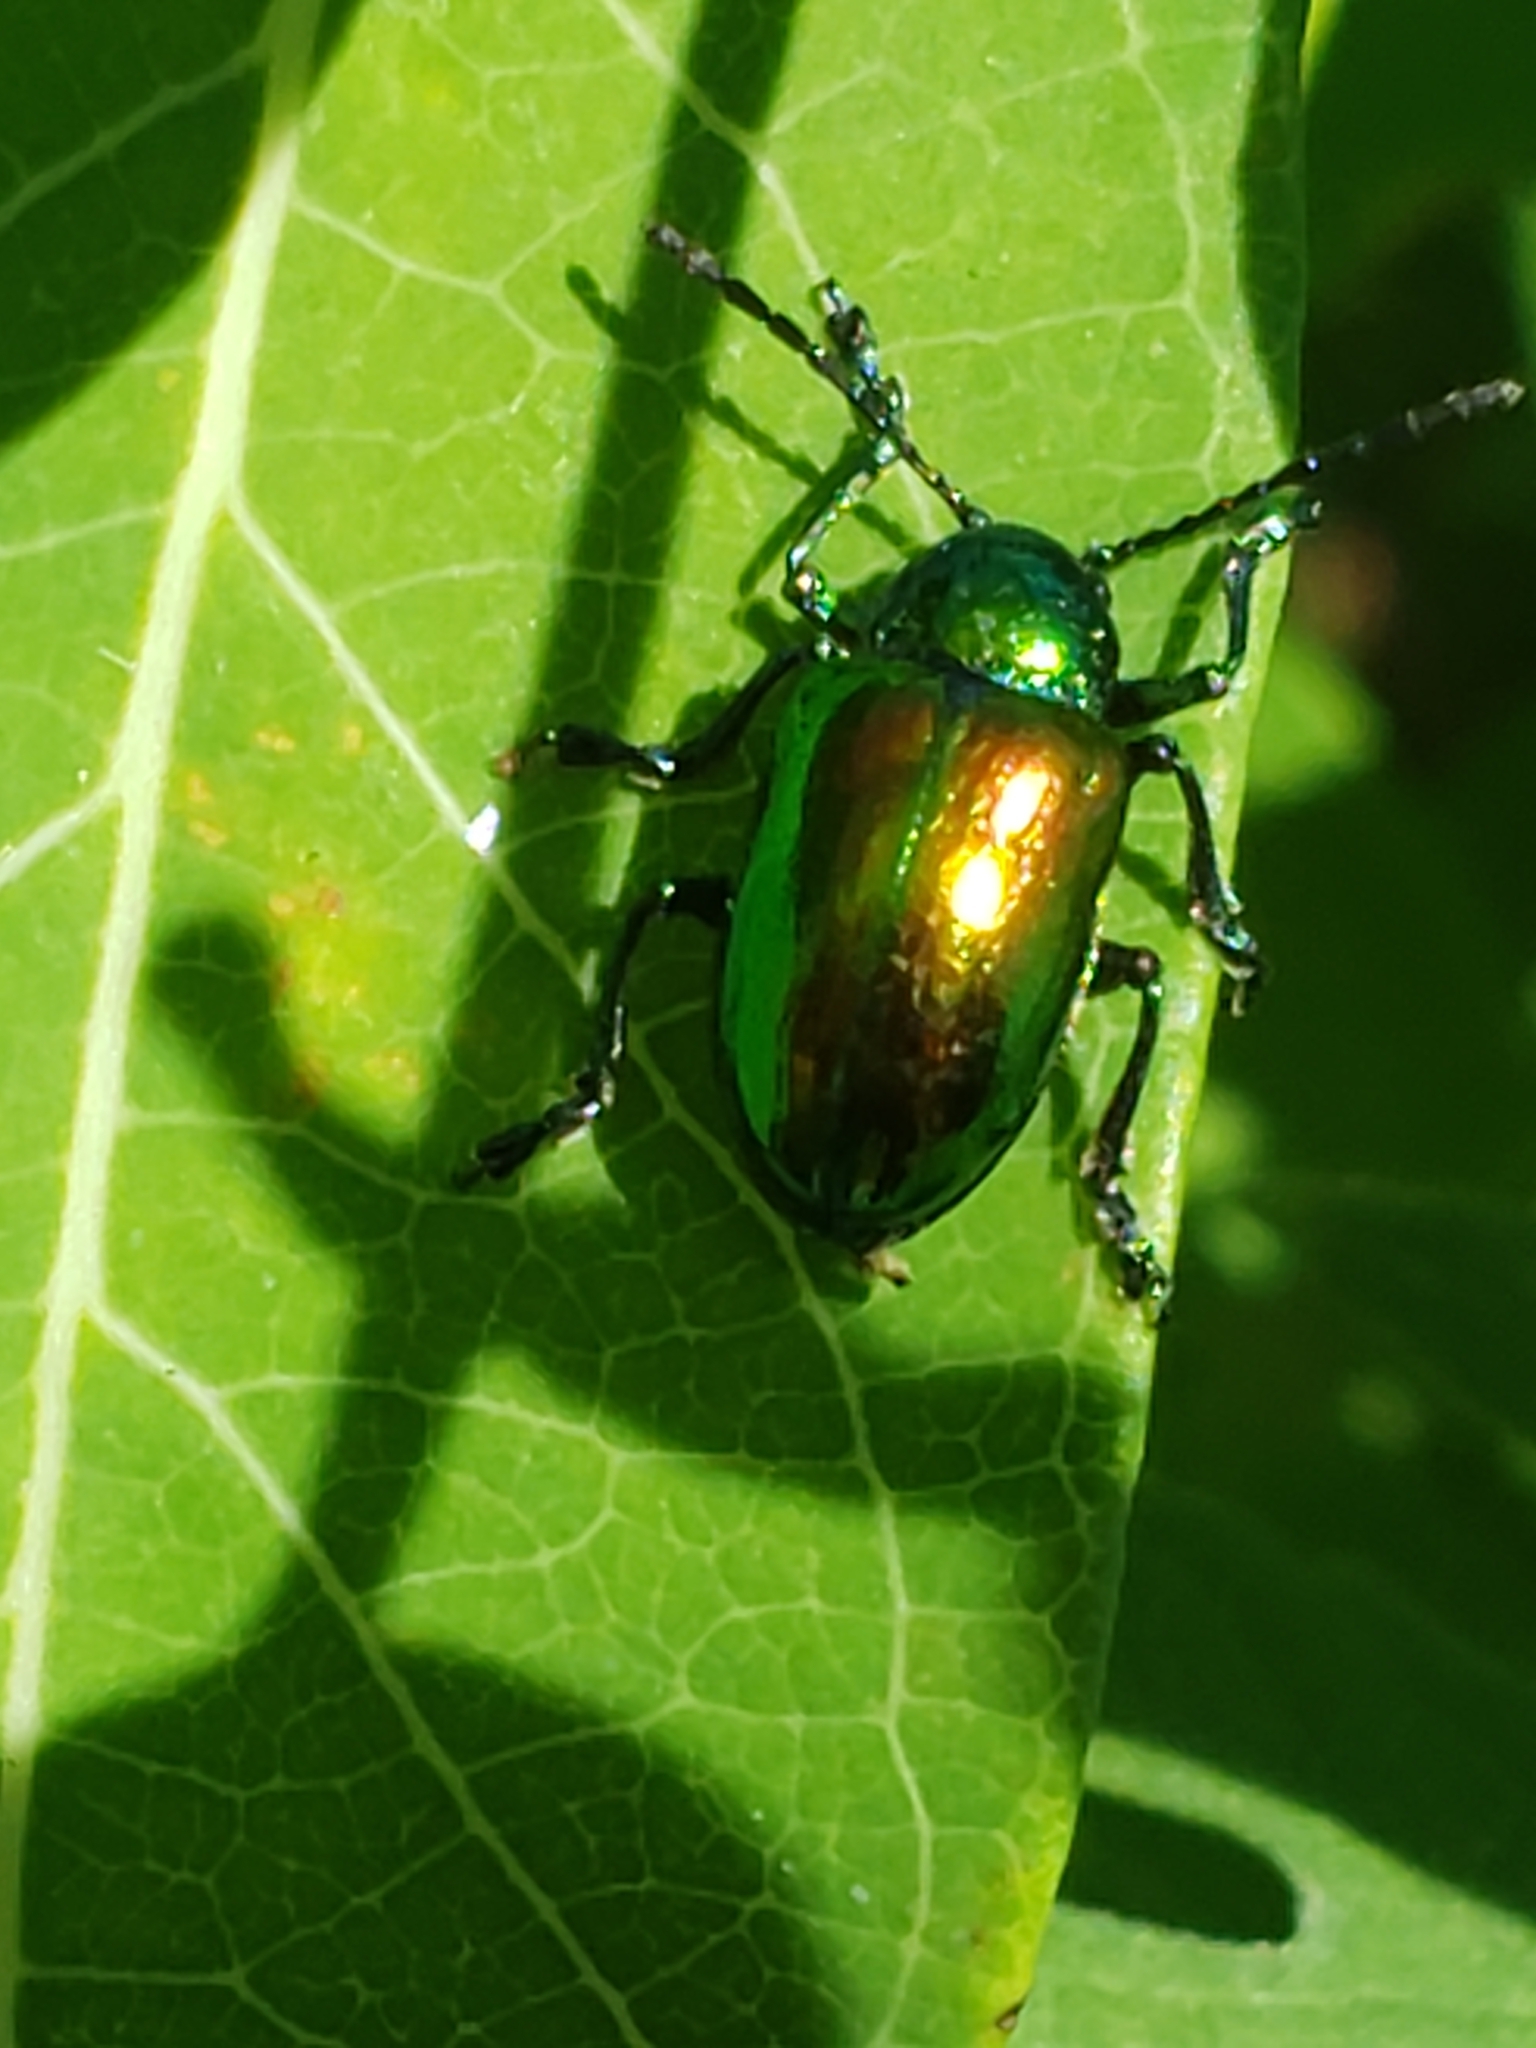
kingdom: Animalia
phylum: Arthropoda
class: Insecta
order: Coleoptera
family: Chrysomelidae
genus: Chrysochus
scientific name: Chrysochus auratus
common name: Dogbane leaf beetle
